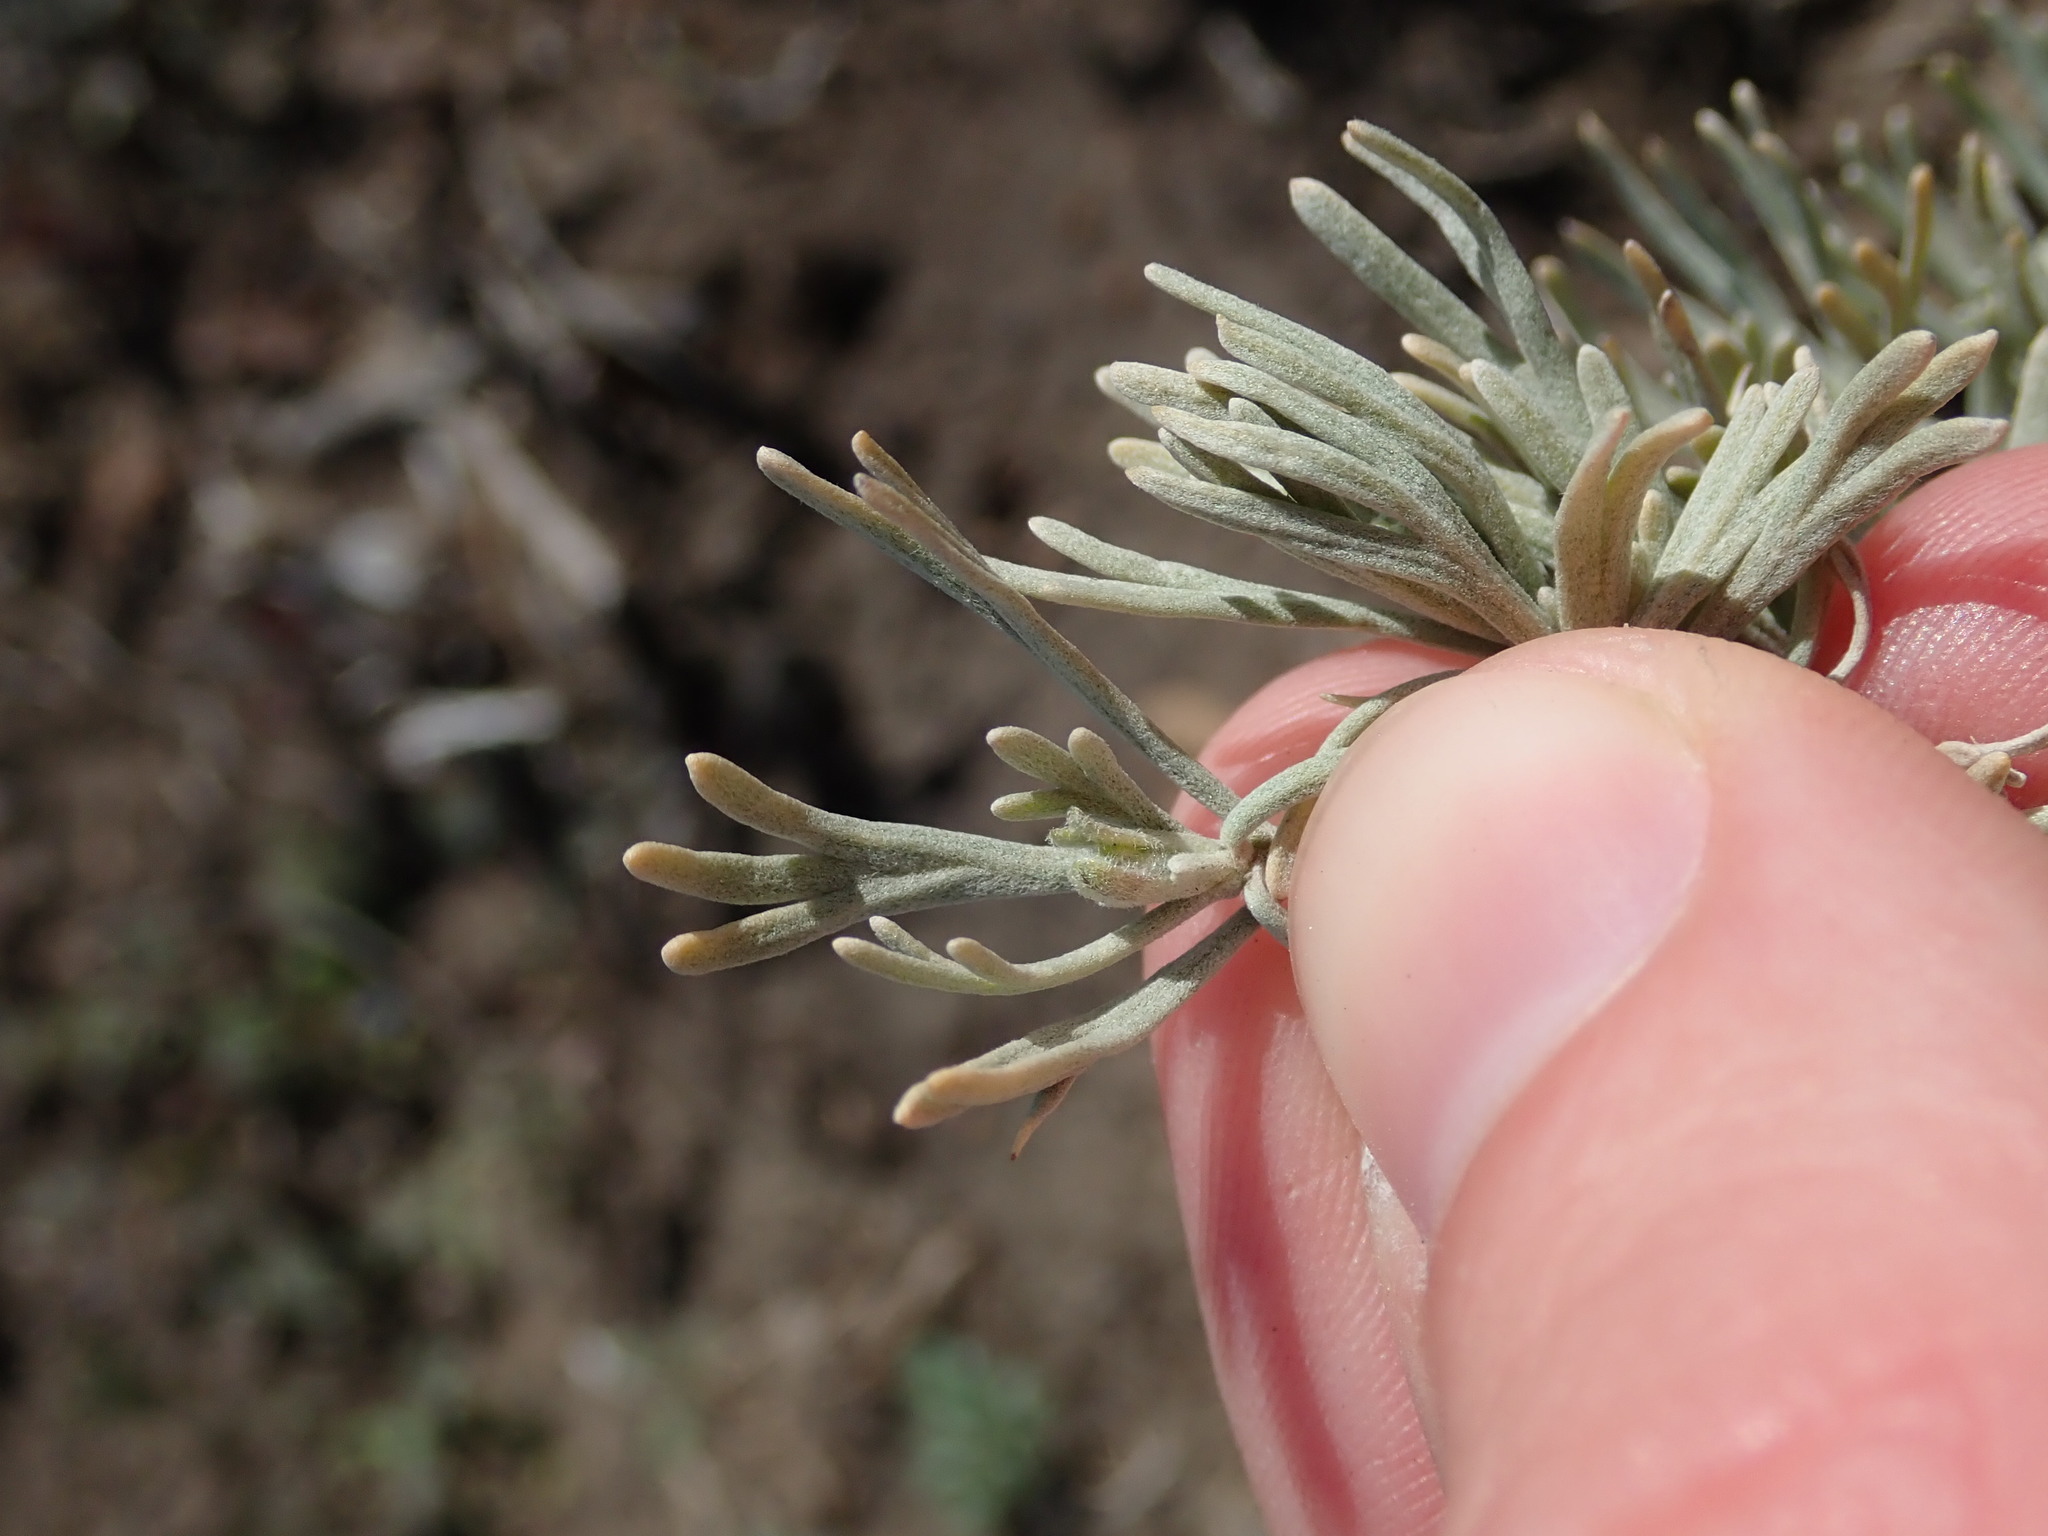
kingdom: Plantae
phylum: Tracheophyta
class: Magnoliopsida
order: Asterales
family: Asteraceae
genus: Artemisia
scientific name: Artemisia tripartita
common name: Three-tip sagebrush
